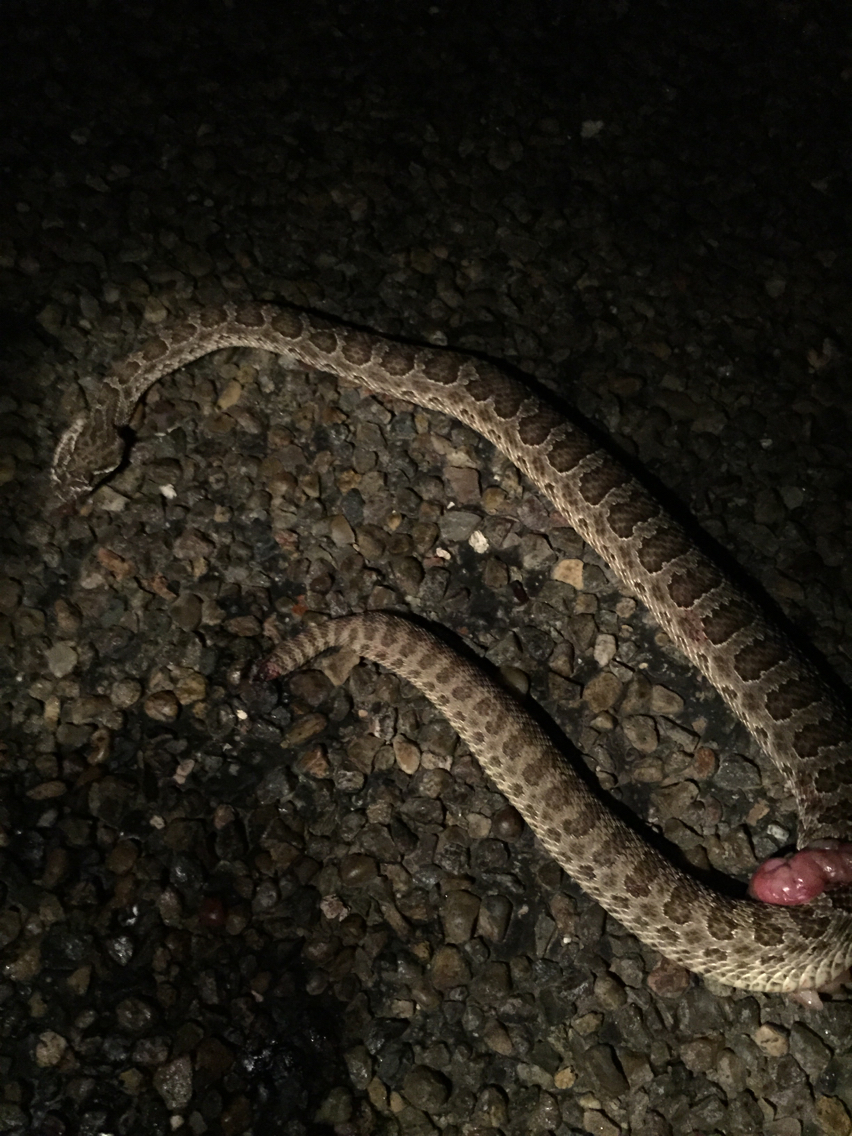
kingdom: Animalia
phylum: Chordata
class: Squamata
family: Viperidae
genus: Crotalus
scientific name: Crotalus viridis
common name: Prairie rattlesnake
